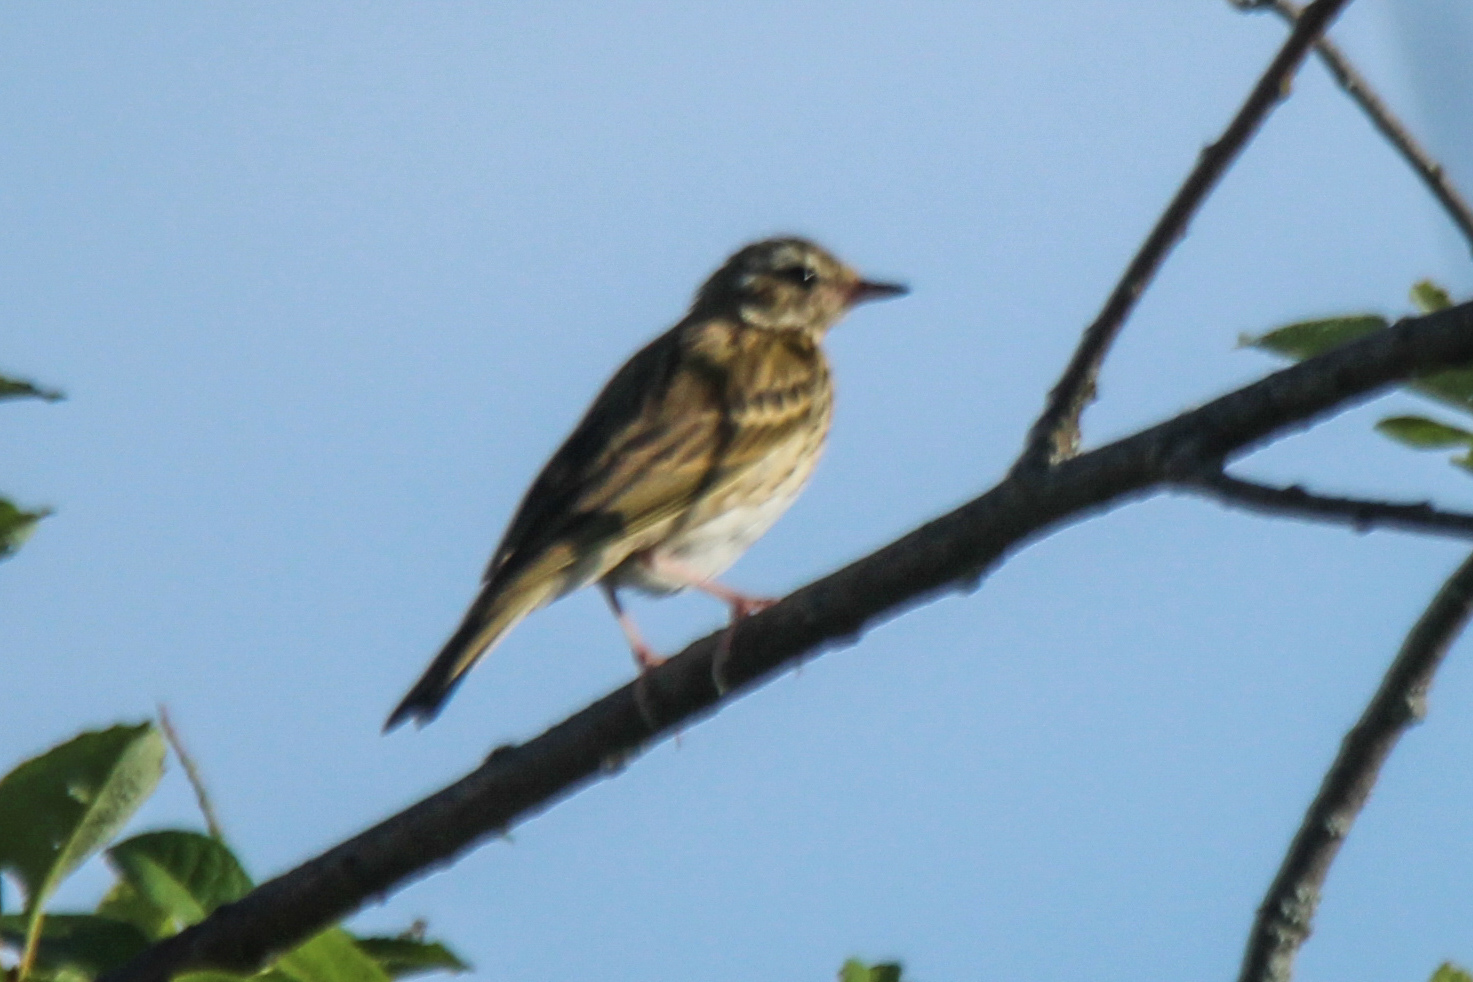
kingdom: Animalia
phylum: Chordata
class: Aves
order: Passeriformes
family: Motacillidae
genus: Anthus
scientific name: Anthus hodgsoni
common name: Olive-backed pipit
